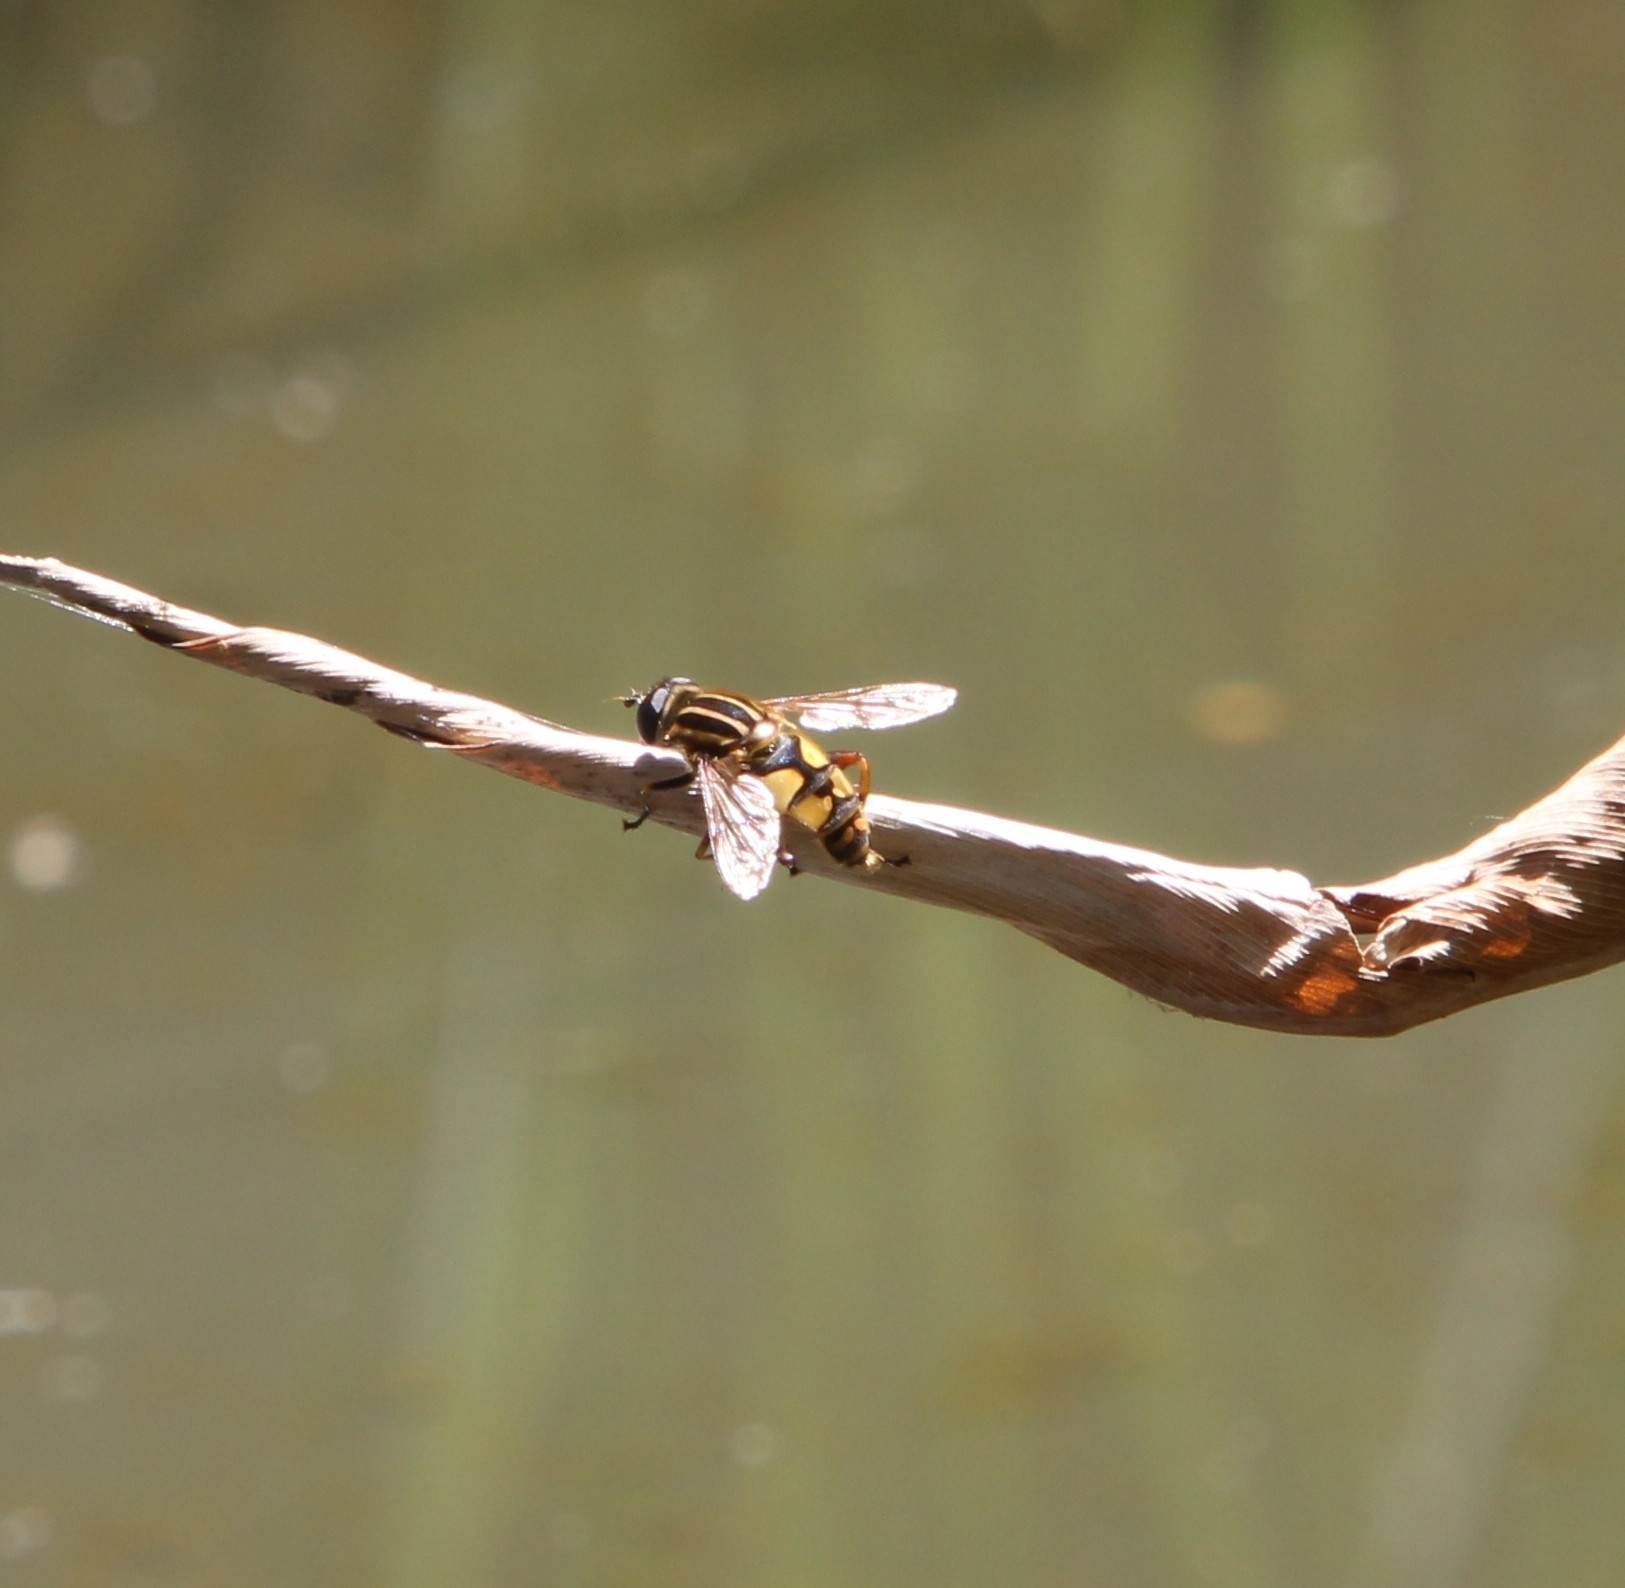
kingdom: Animalia
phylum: Arthropoda
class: Insecta
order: Diptera
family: Syrphidae
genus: Helophilus
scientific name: Helophilus pendulus
